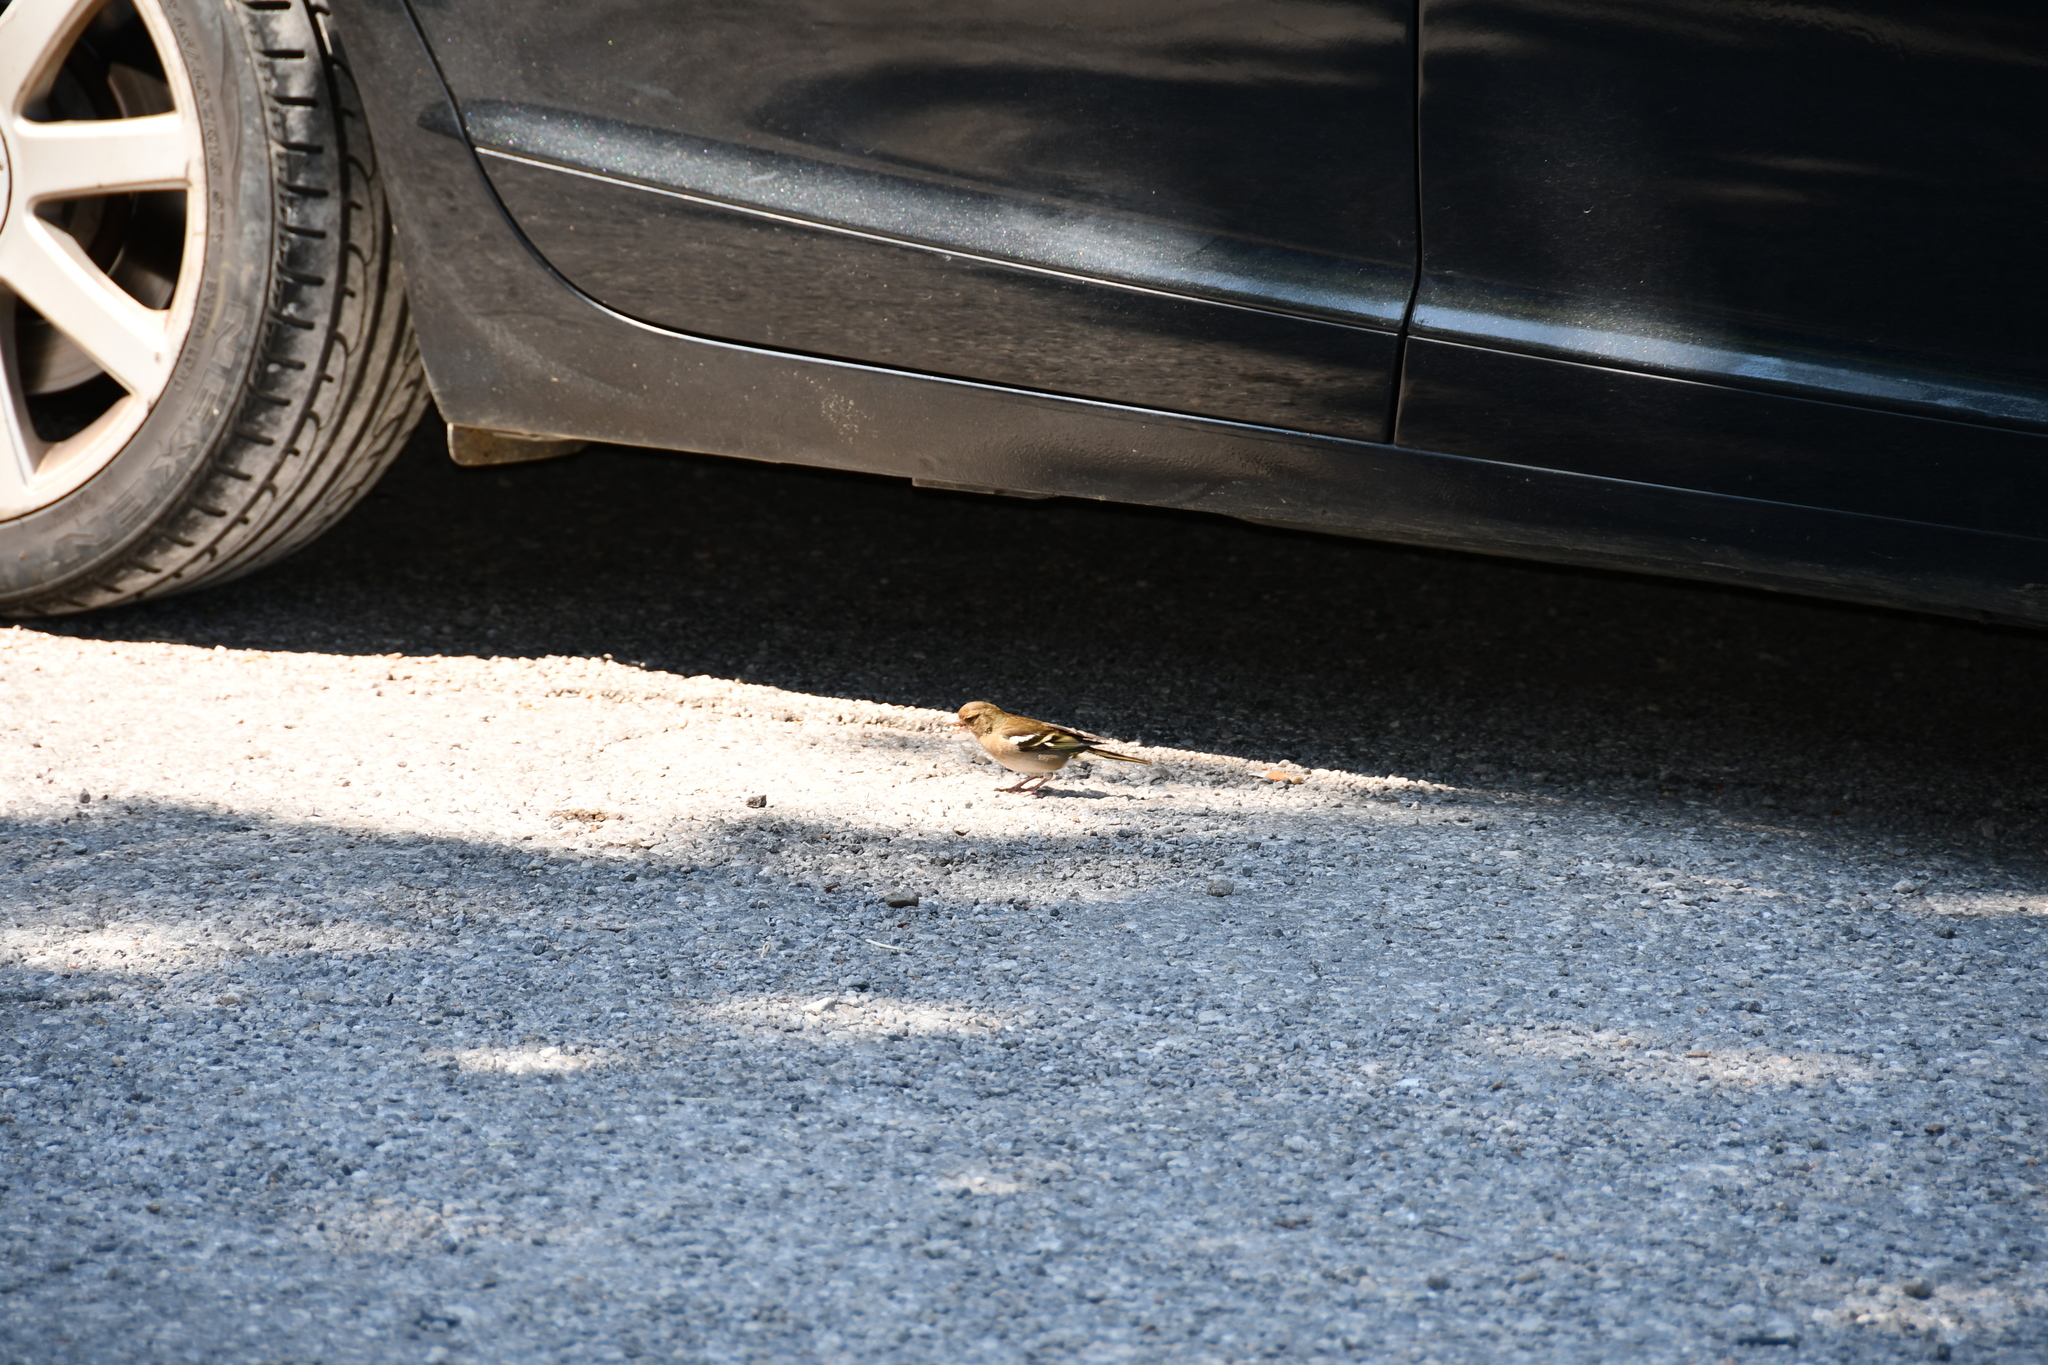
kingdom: Animalia
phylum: Chordata
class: Aves
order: Passeriformes
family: Fringillidae
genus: Fringilla
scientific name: Fringilla coelebs
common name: Common chaffinch
